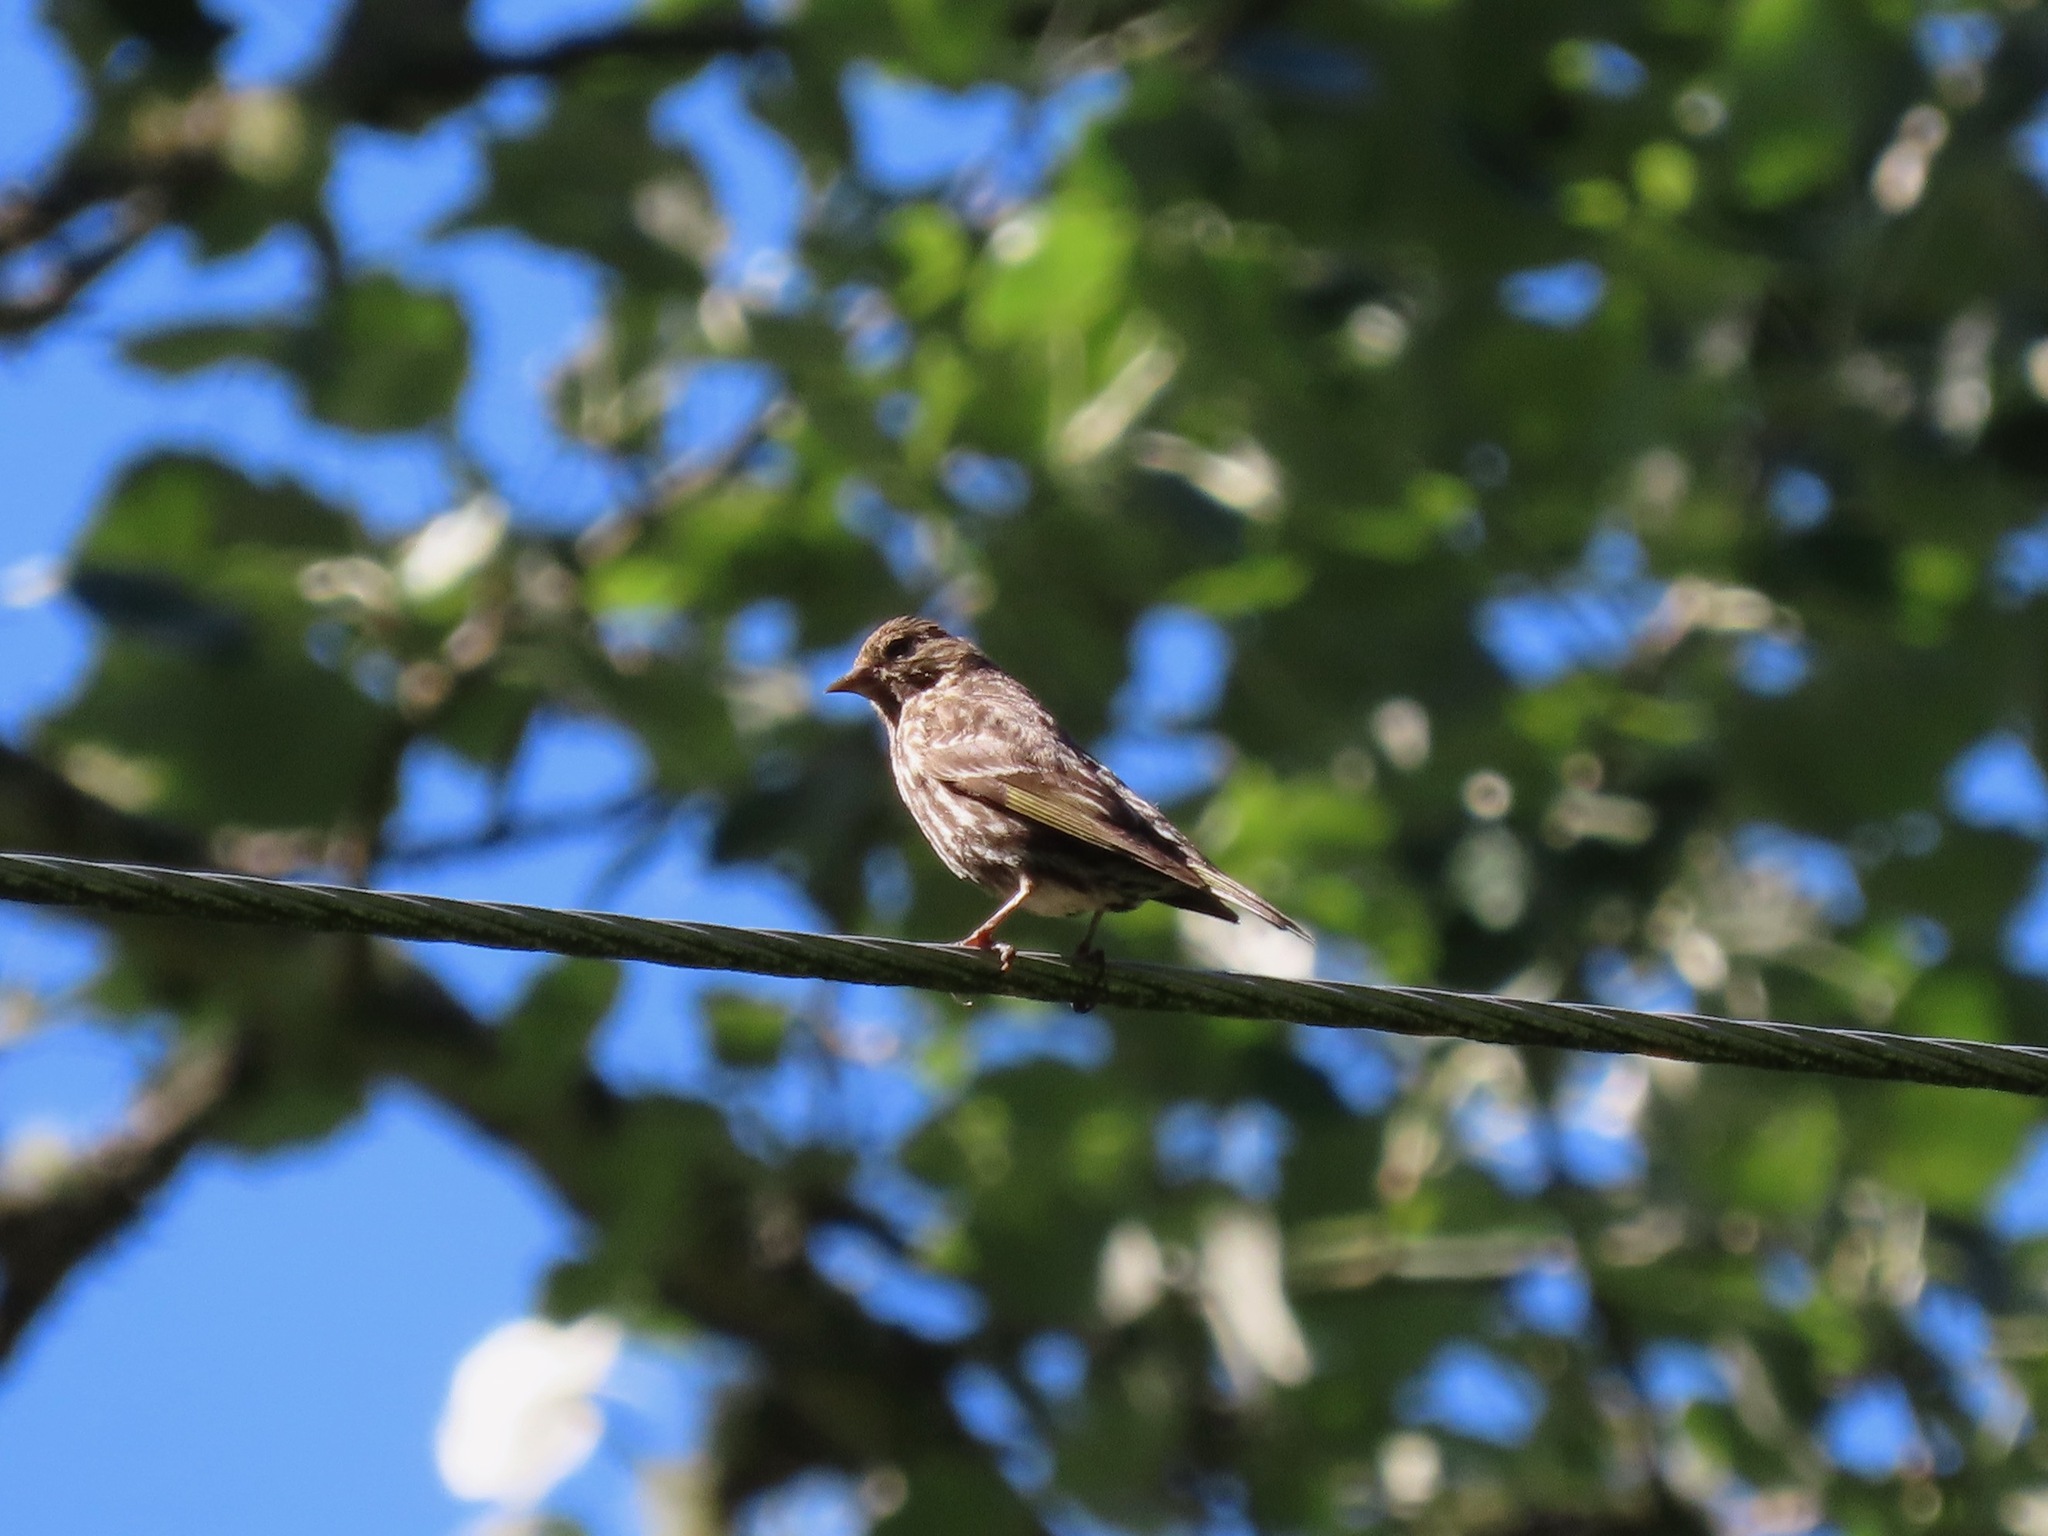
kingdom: Animalia
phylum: Chordata
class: Aves
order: Passeriformes
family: Fringillidae
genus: Spinus
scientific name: Spinus pinus
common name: Pine siskin
